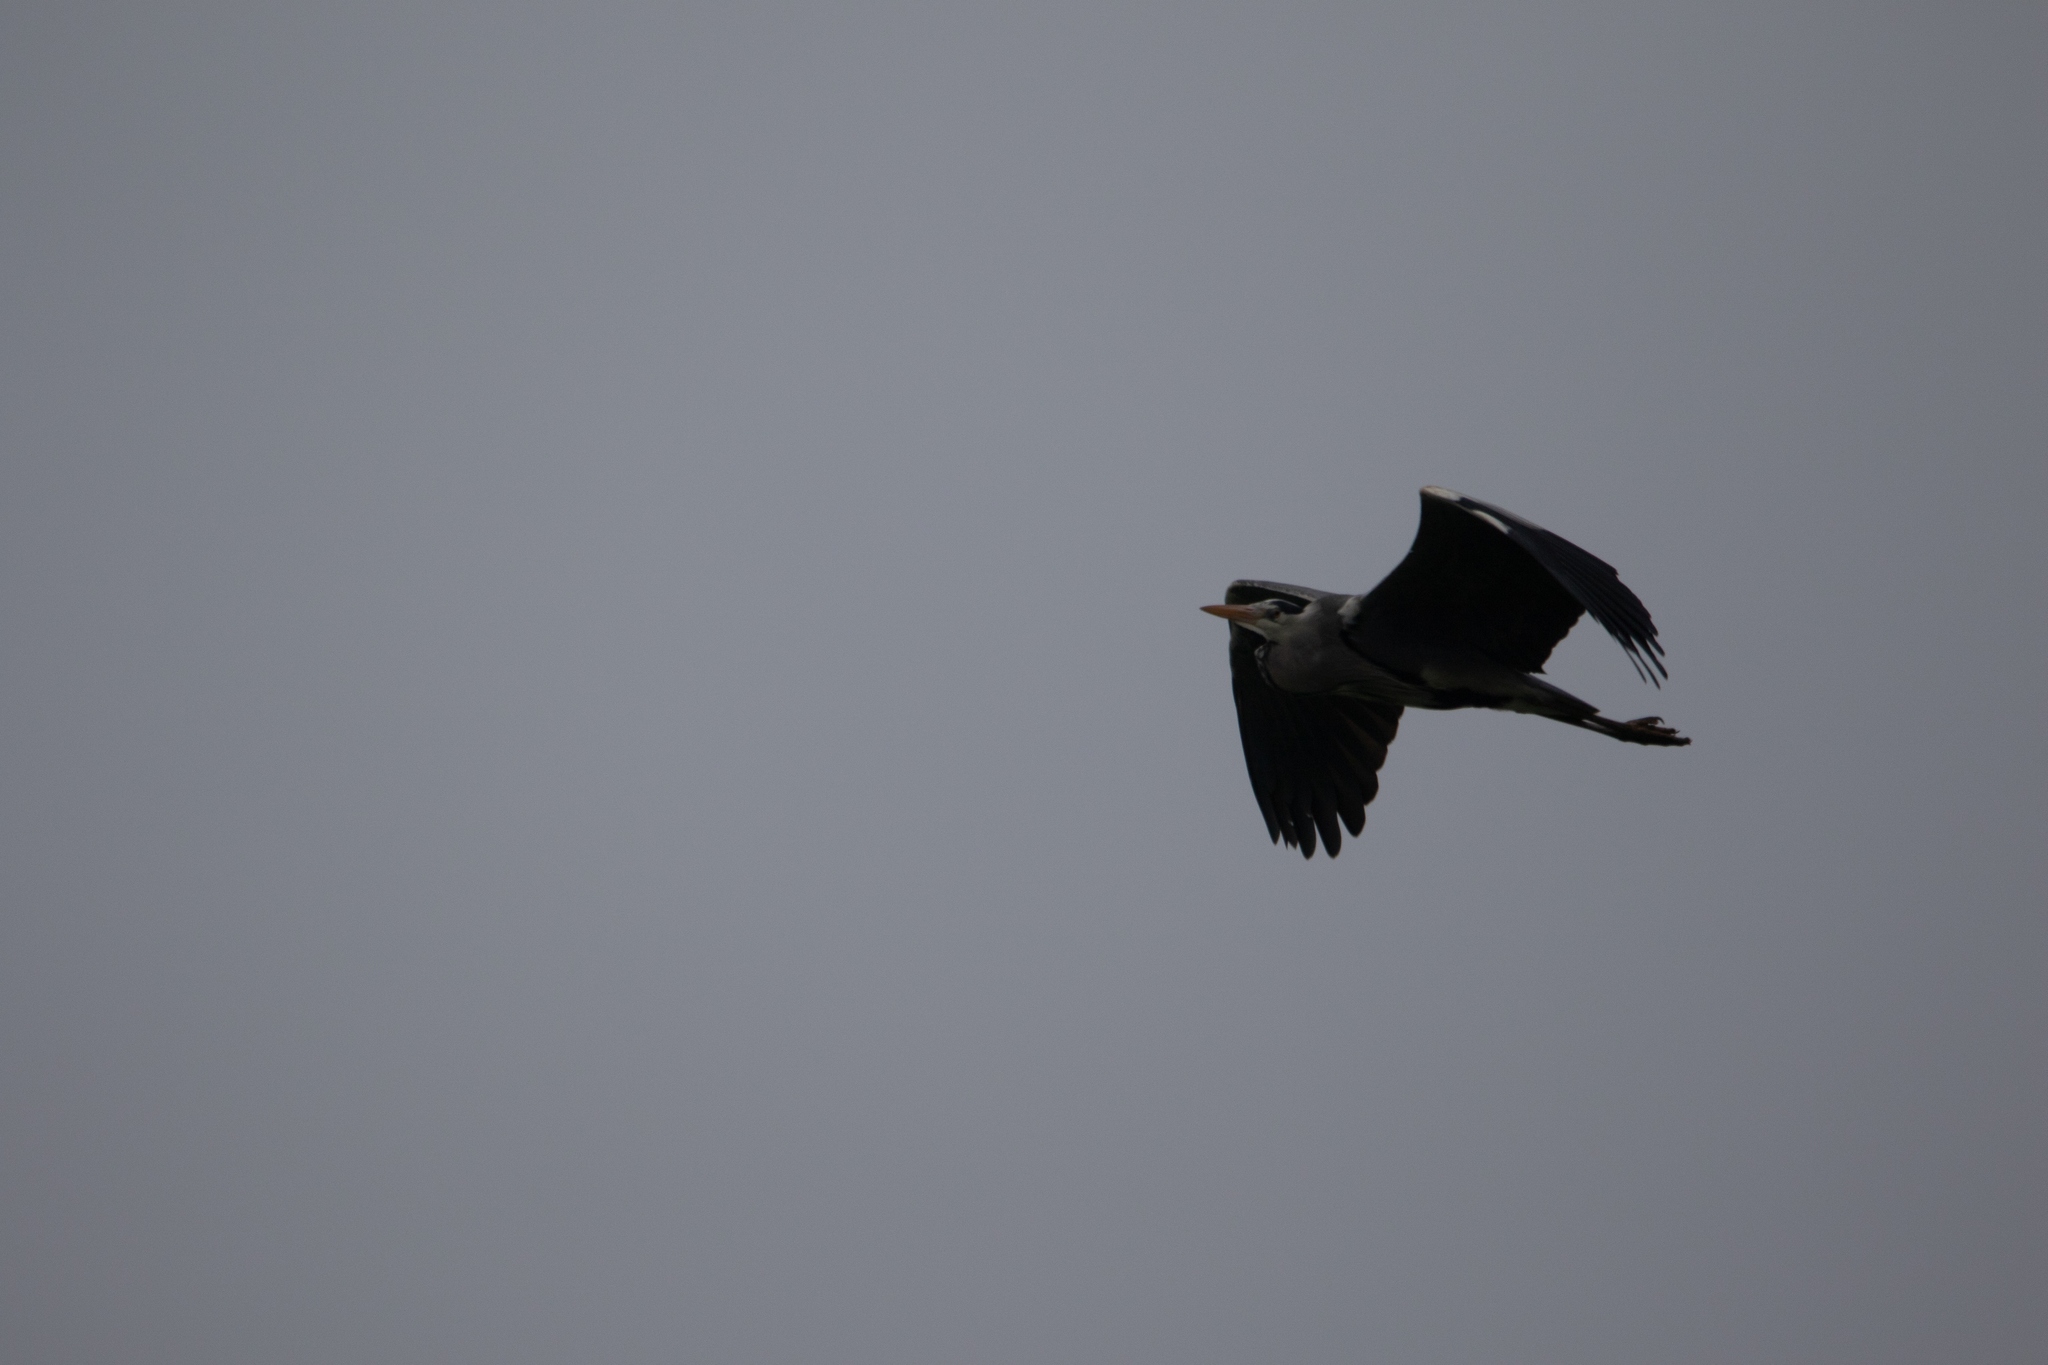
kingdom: Animalia
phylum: Chordata
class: Aves
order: Pelecaniformes
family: Ardeidae
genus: Ardea
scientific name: Ardea cinerea
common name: Grey heron
